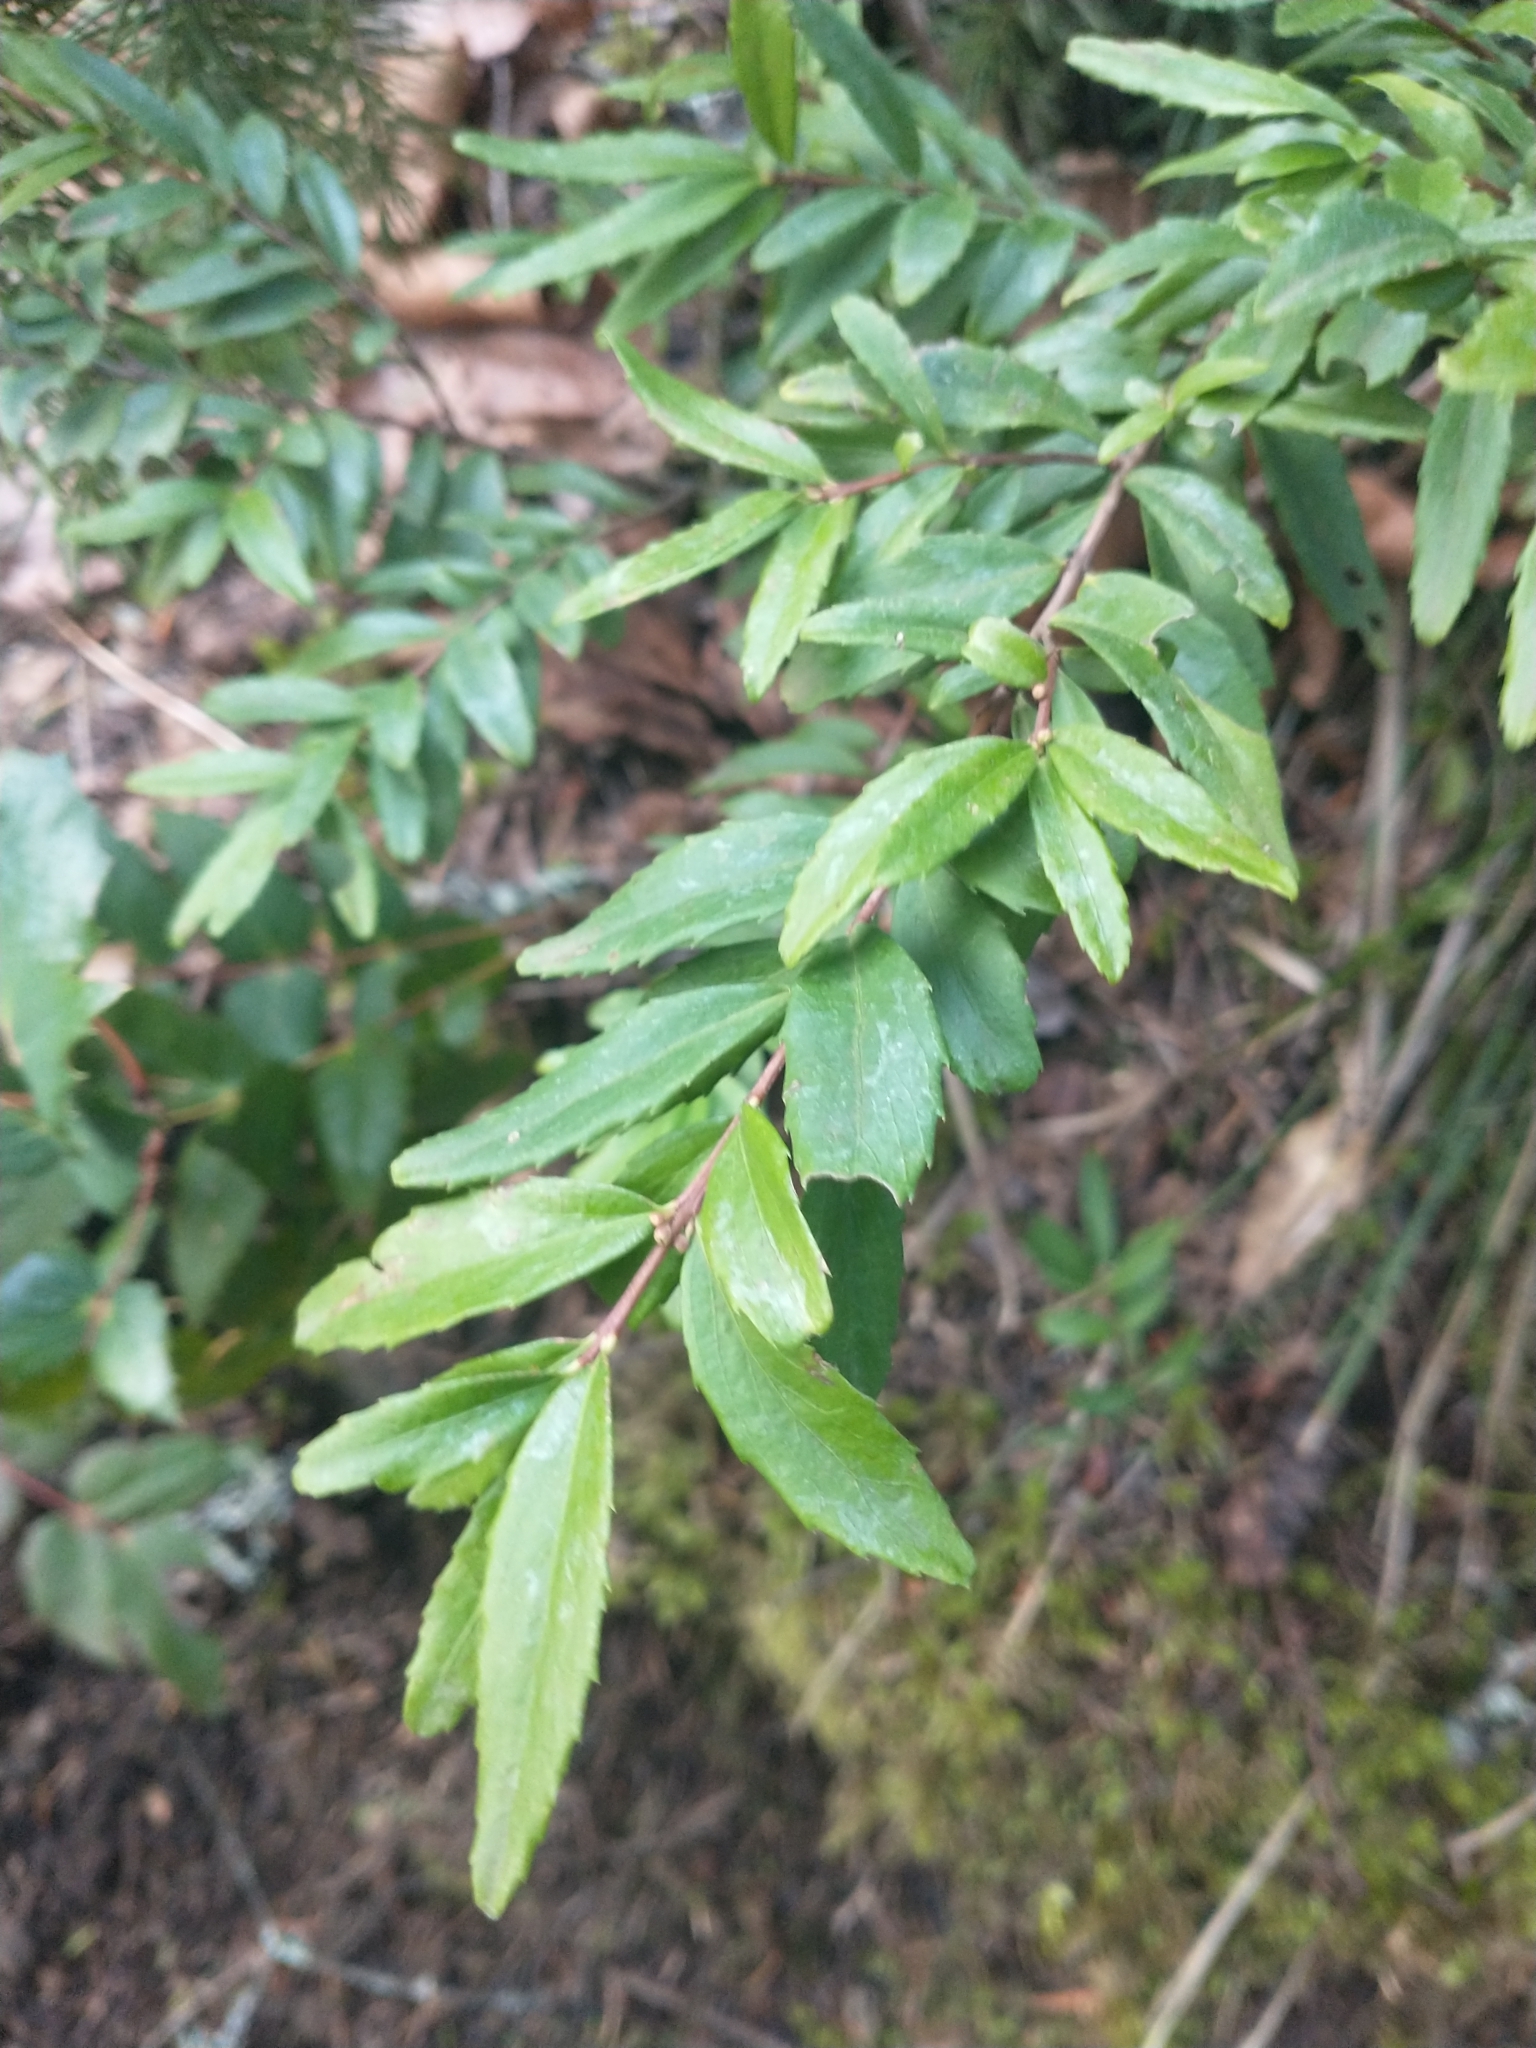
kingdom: Plantae
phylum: Tracheophyta
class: Magnoliopsida
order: Celastrales
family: Celastraceae
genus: Paxistima
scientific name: Paxistima myrsinites
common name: Mountain-lover
